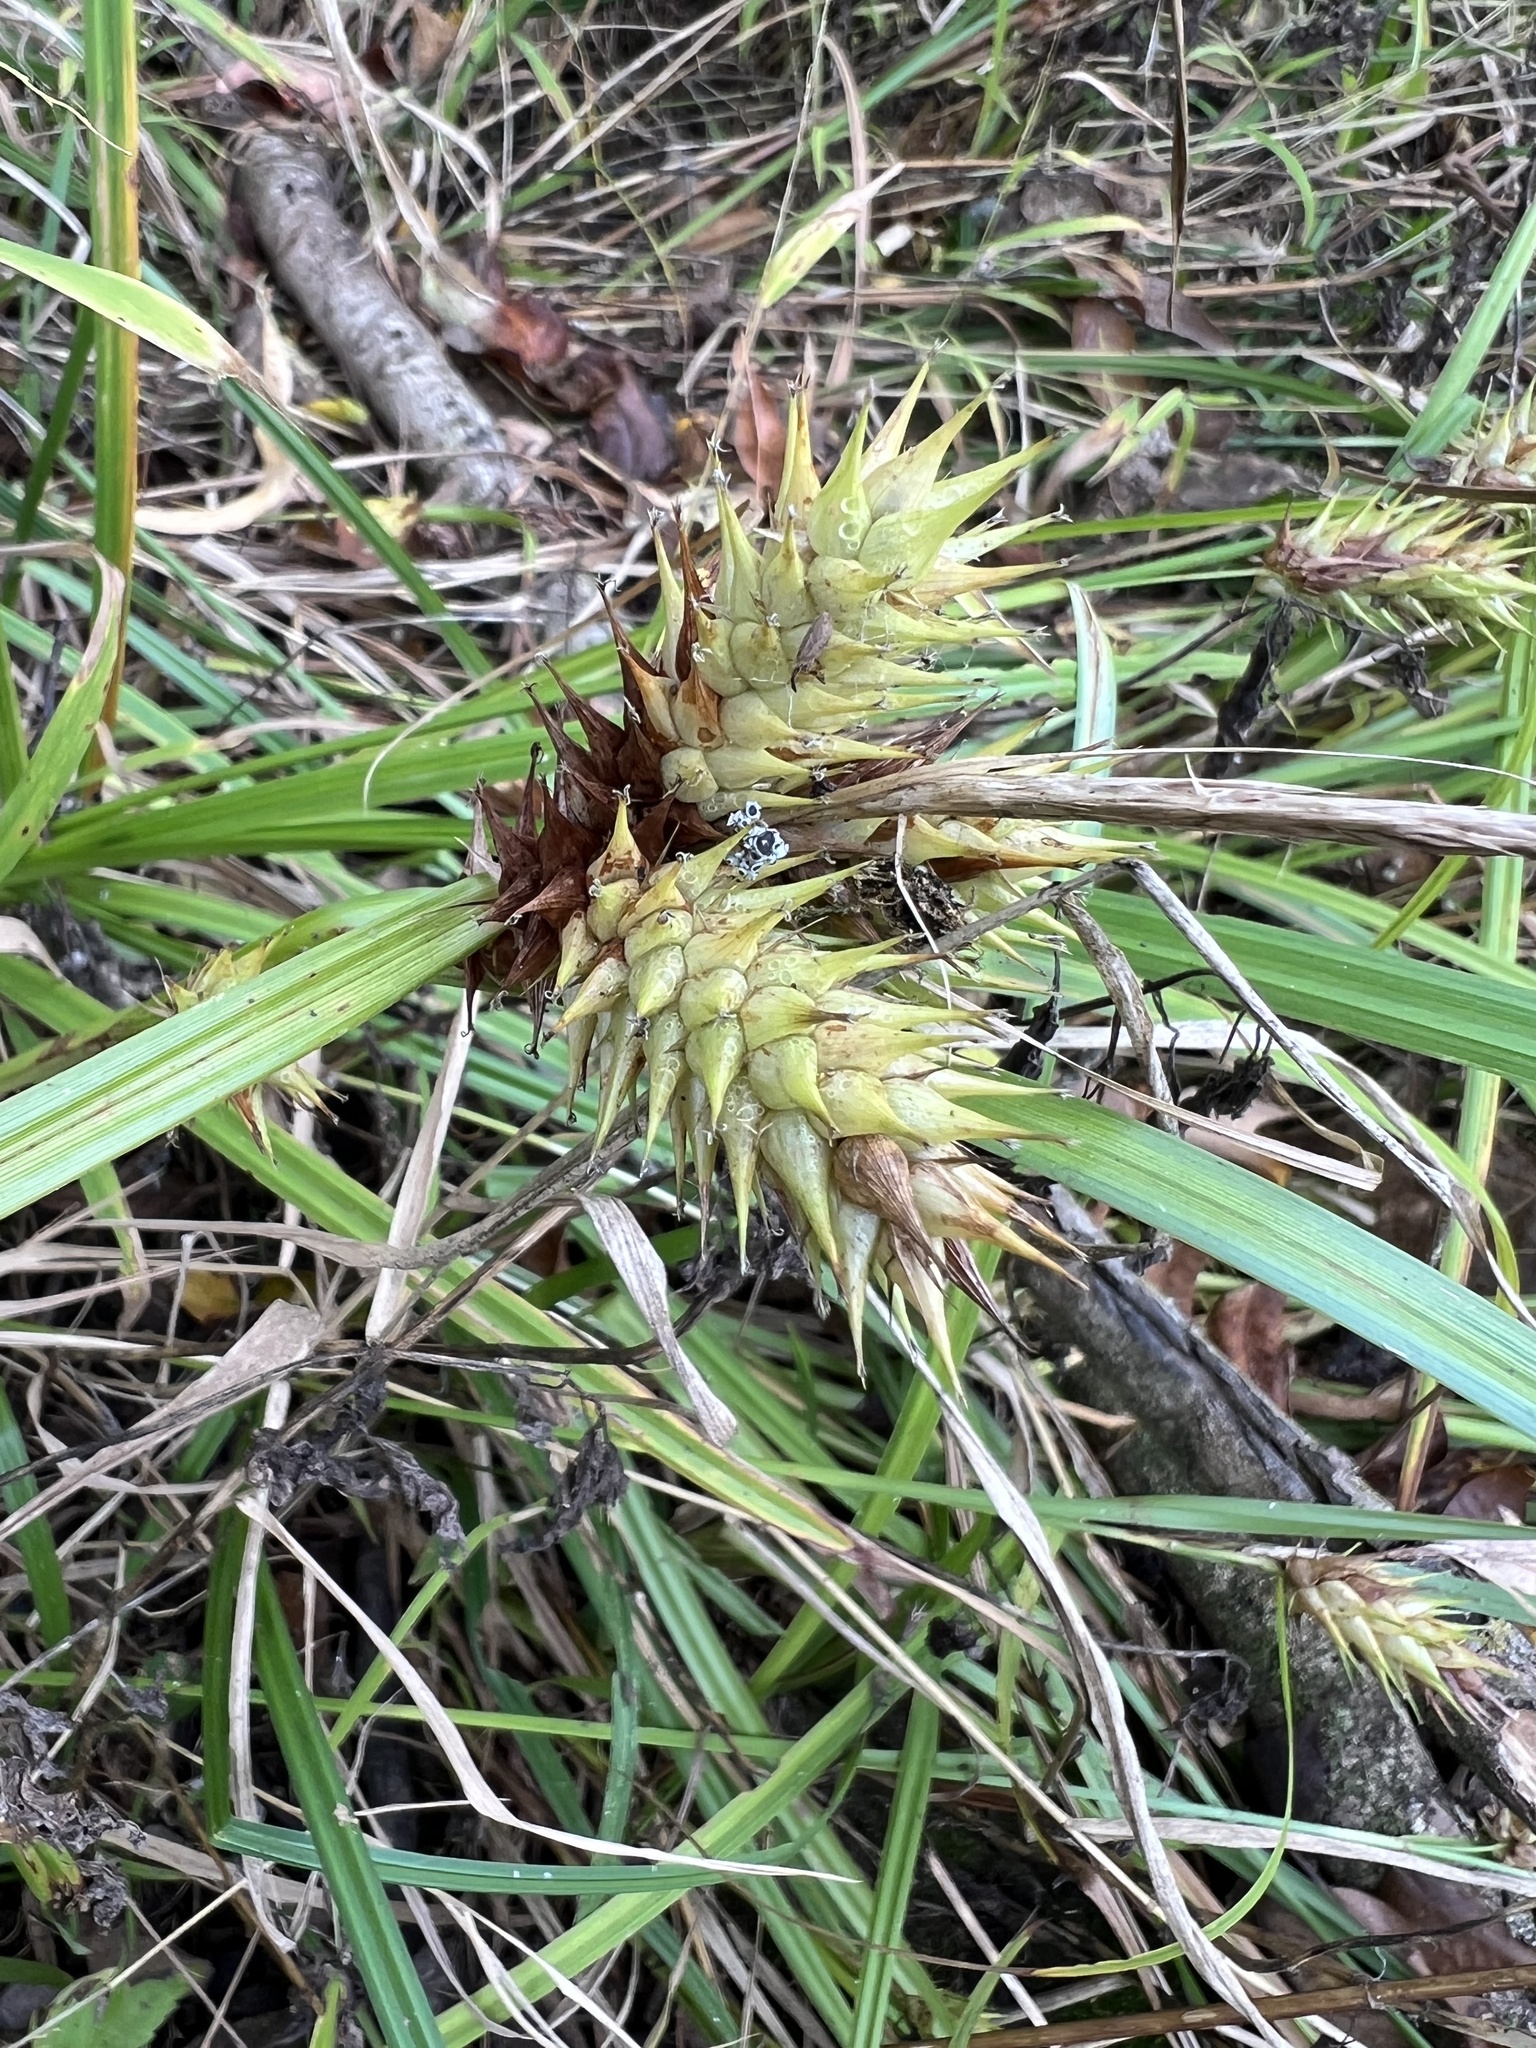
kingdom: Plantae
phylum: Tracheophyta
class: Liliopsida
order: Poales
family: Cyperaceae
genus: Carex
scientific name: Carex lupulina
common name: Hop sedge
